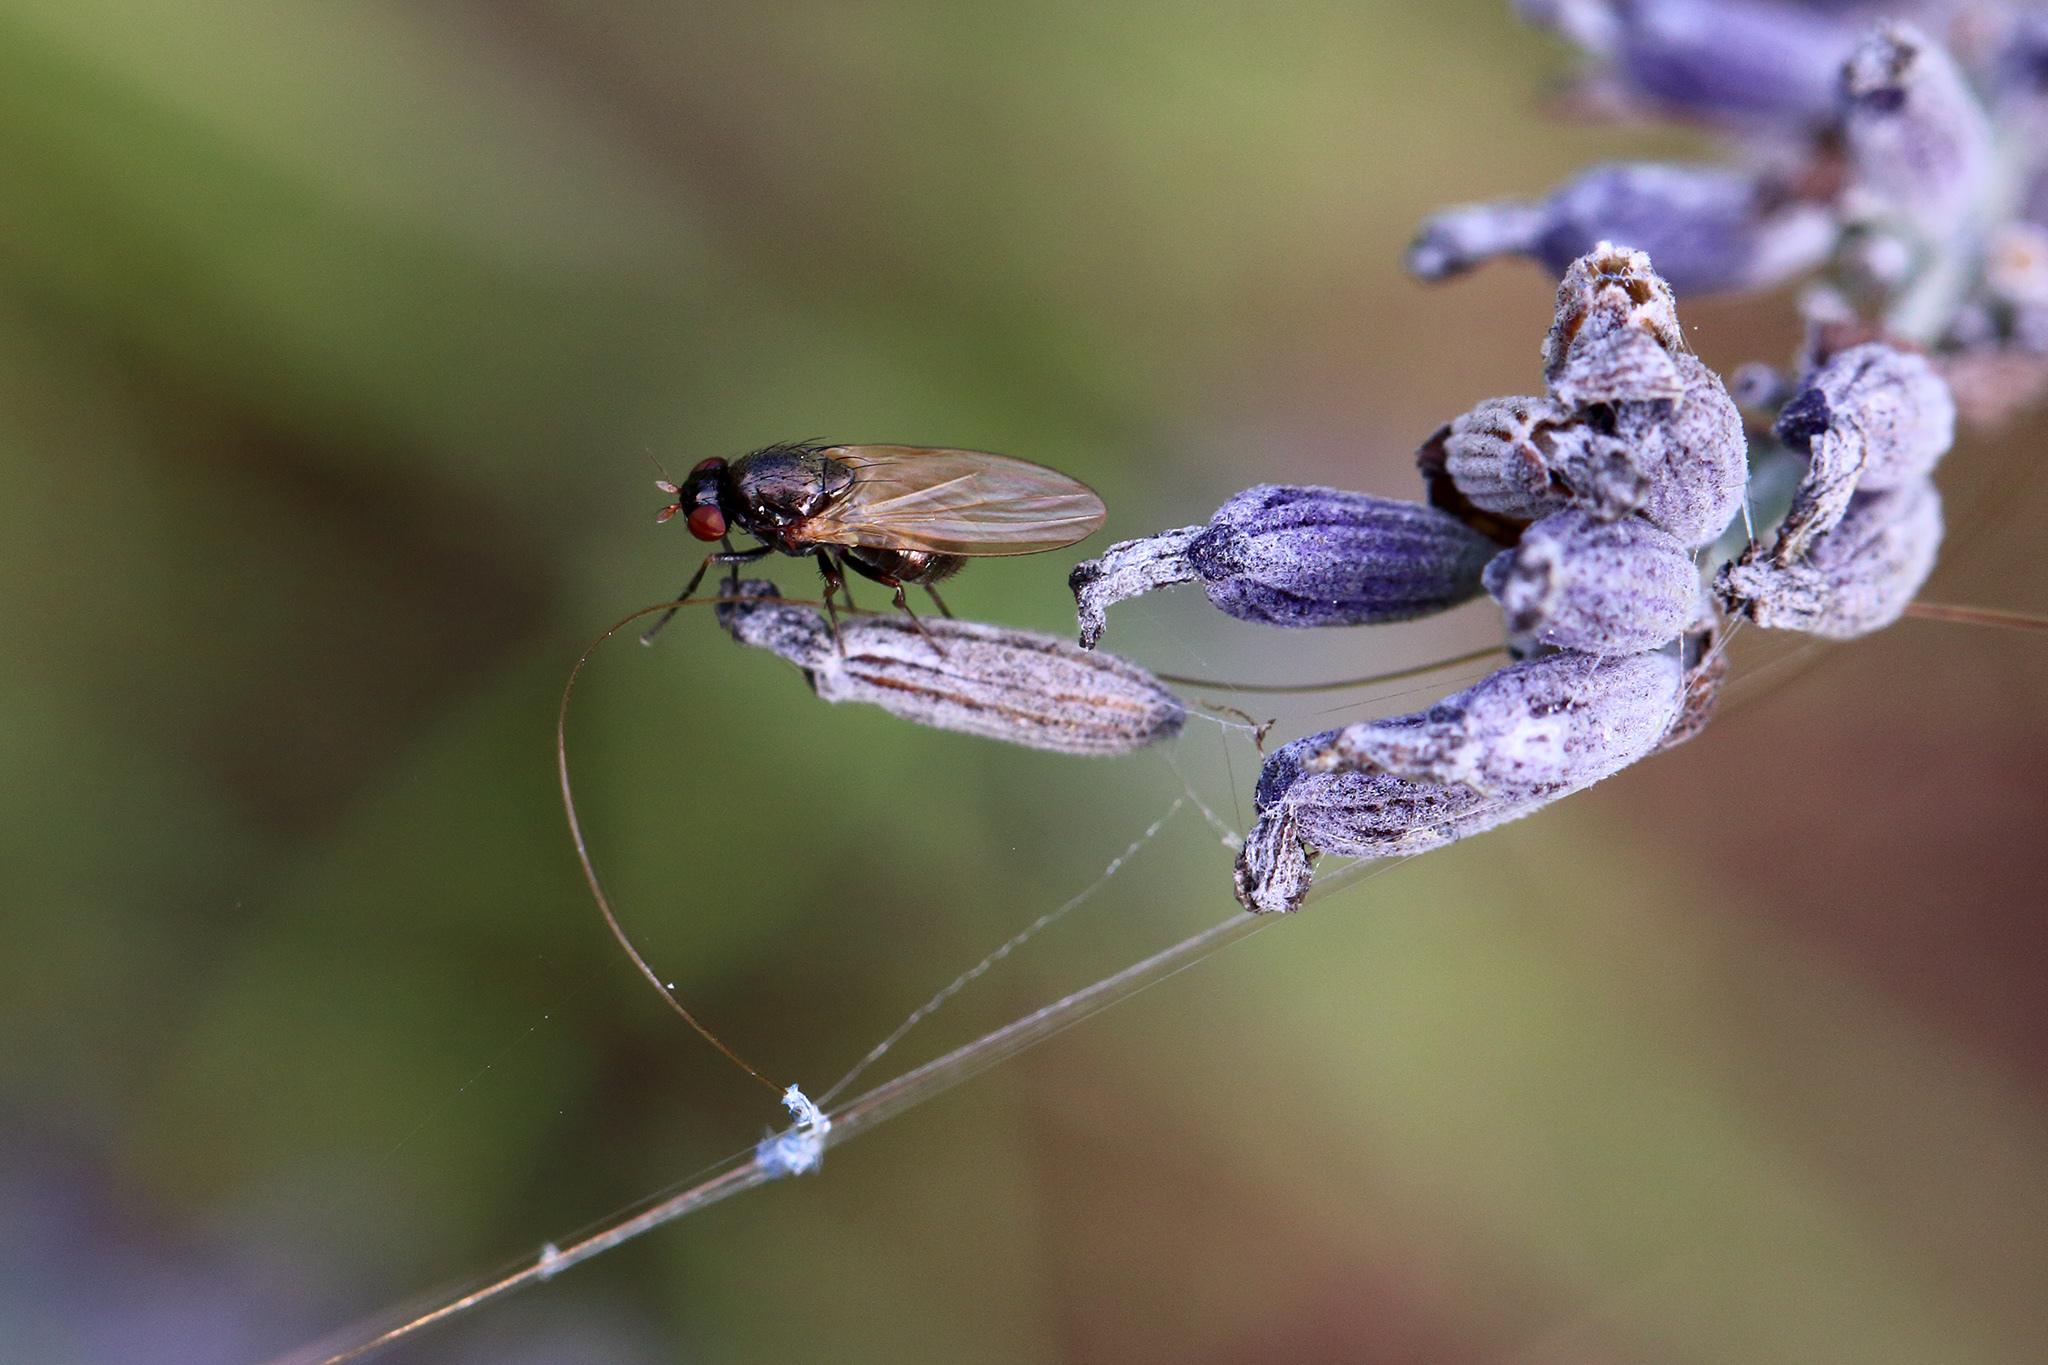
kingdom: Animalia
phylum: Arthropoda
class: Insecta
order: Diptera
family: Lauxaniidae
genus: Calliopum
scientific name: Calliopum
